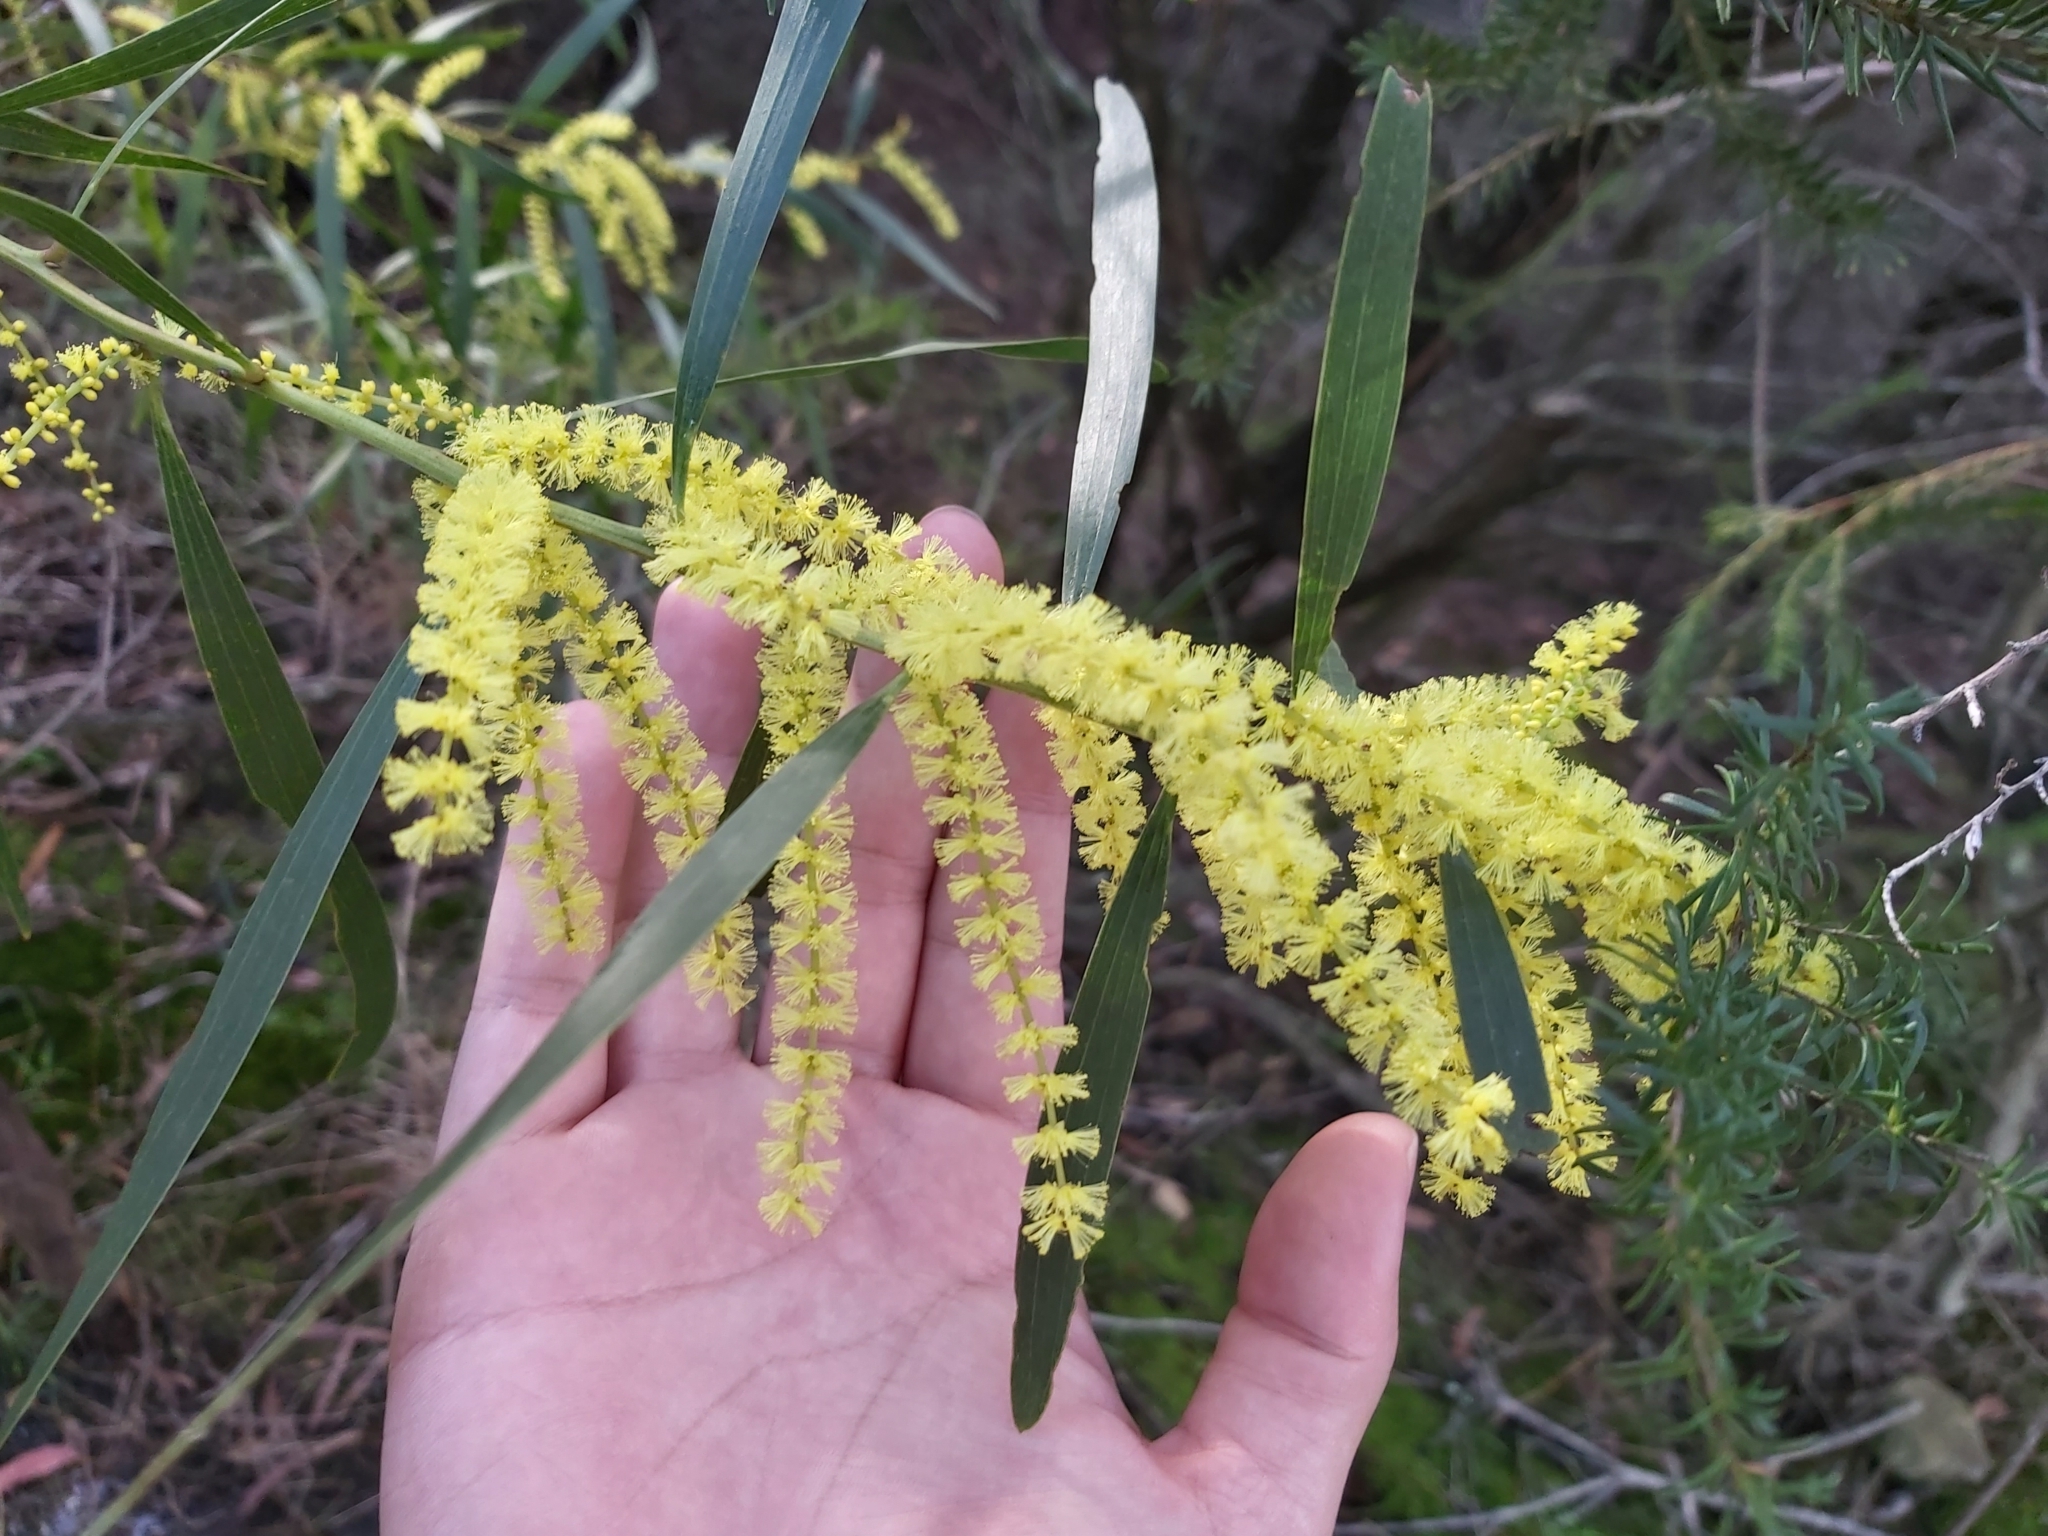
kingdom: Plantae
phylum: Tracheophyta
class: Magnoliopsida
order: Fabales
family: Fabaceae
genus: Acacia
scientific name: Acacia longifolia
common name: Sydney golden wattle
